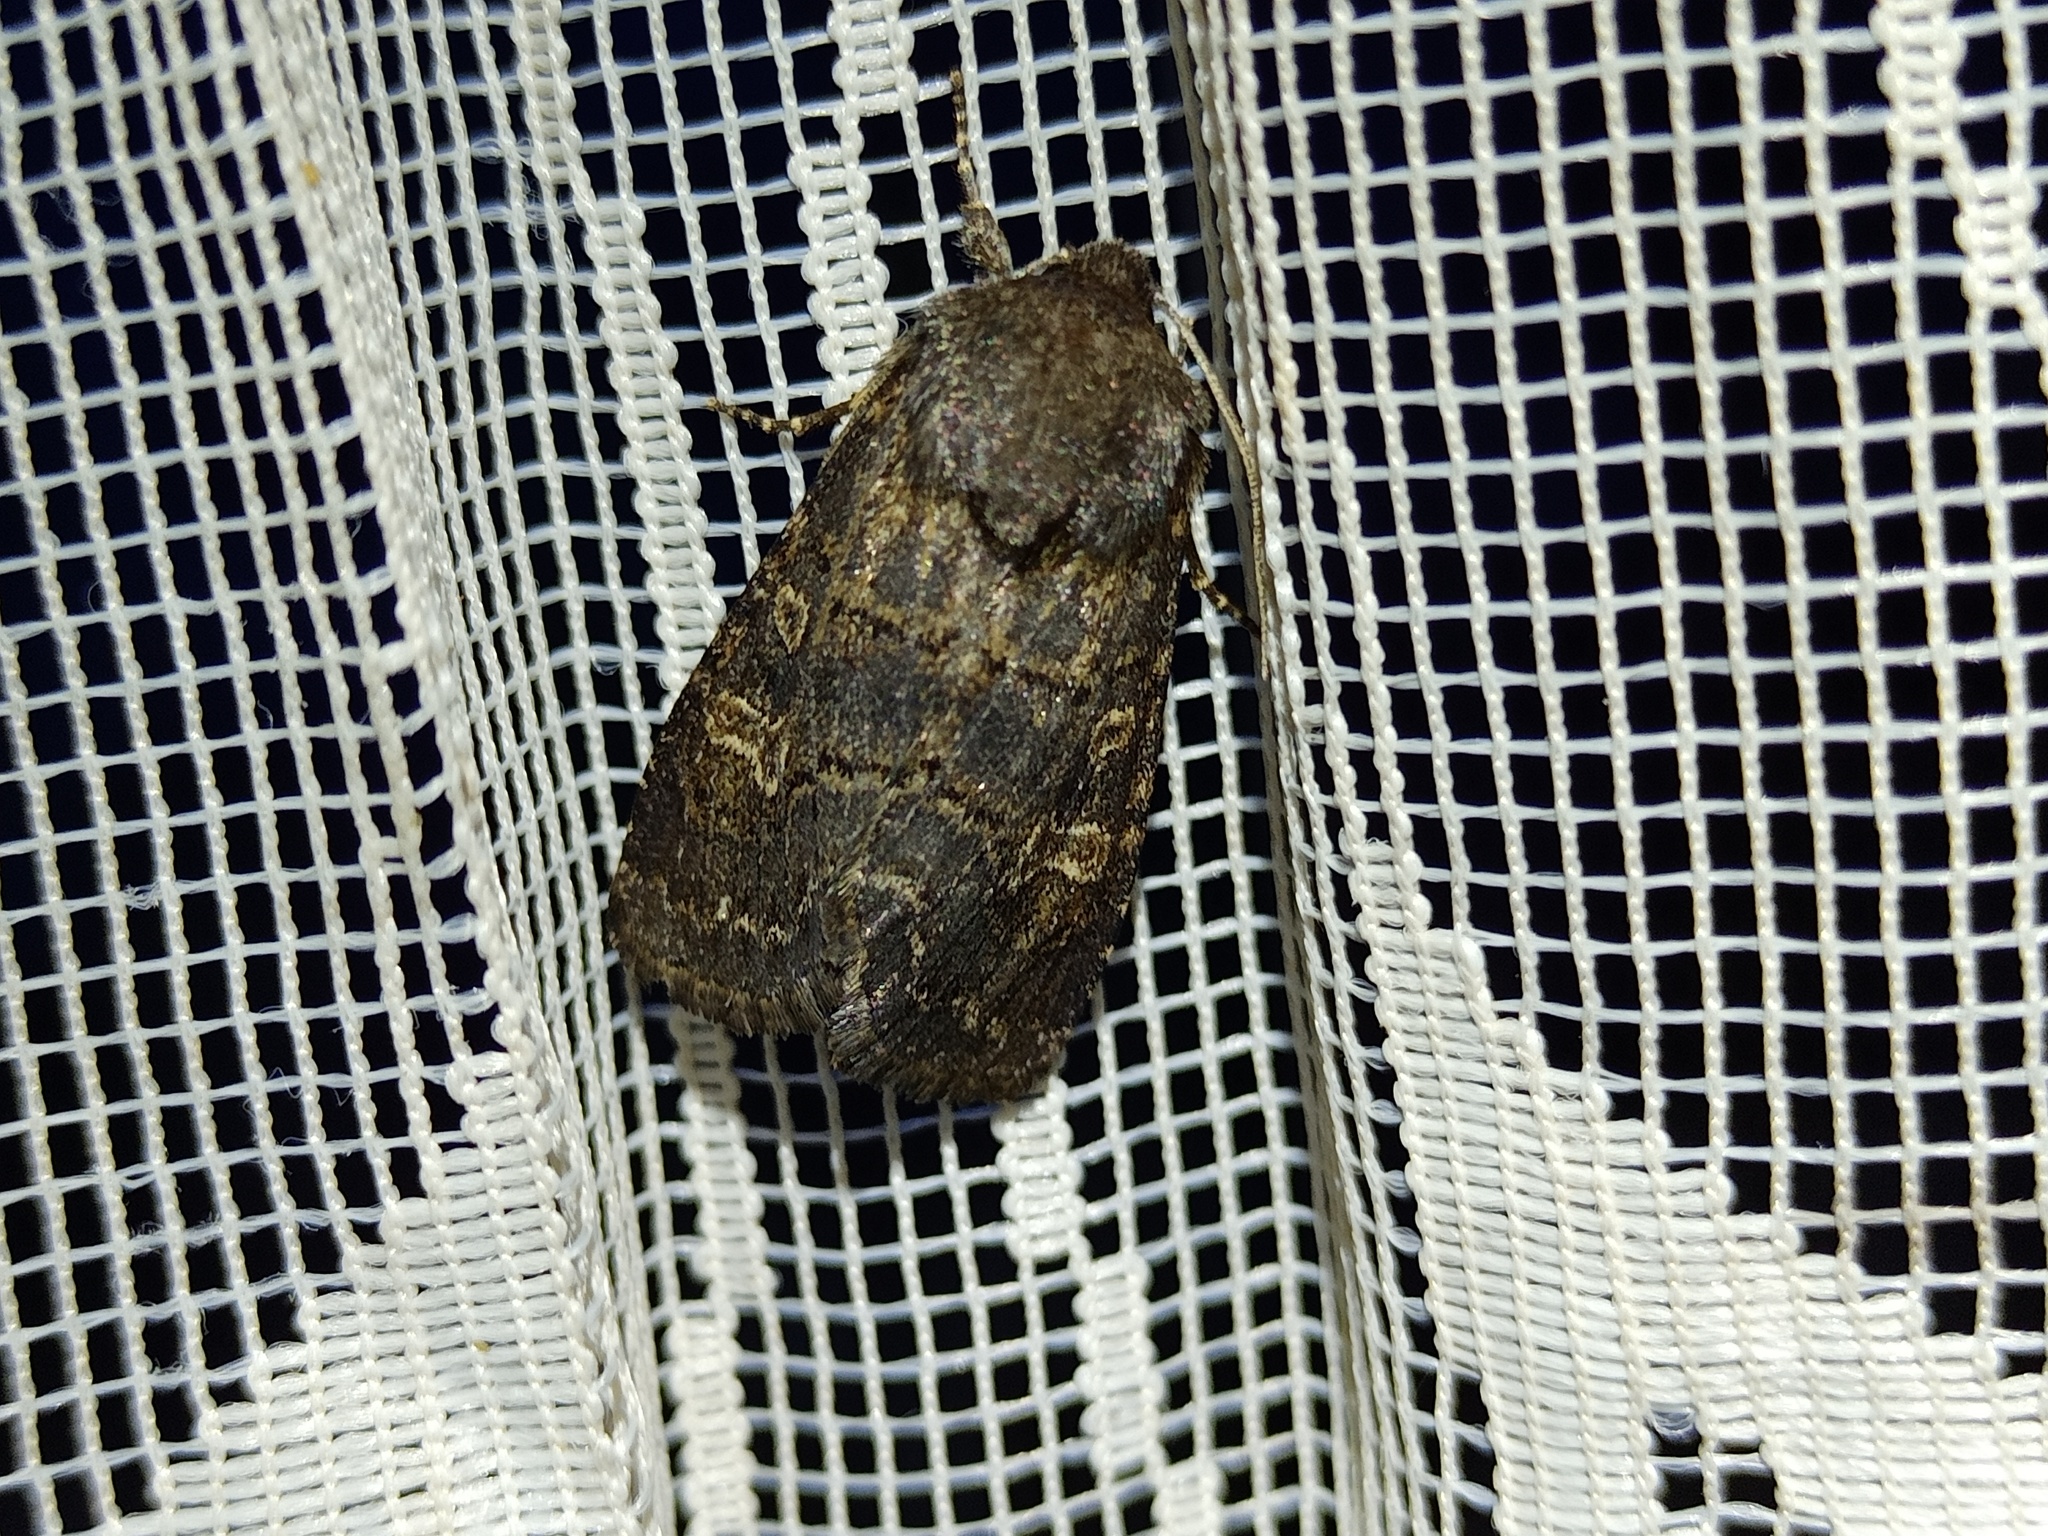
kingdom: Animalia
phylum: Arthropoda
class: Insecta
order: Lepidoptera
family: Noctuidae
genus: Tholera
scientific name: Tholera cespitis
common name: Hedge rustic
